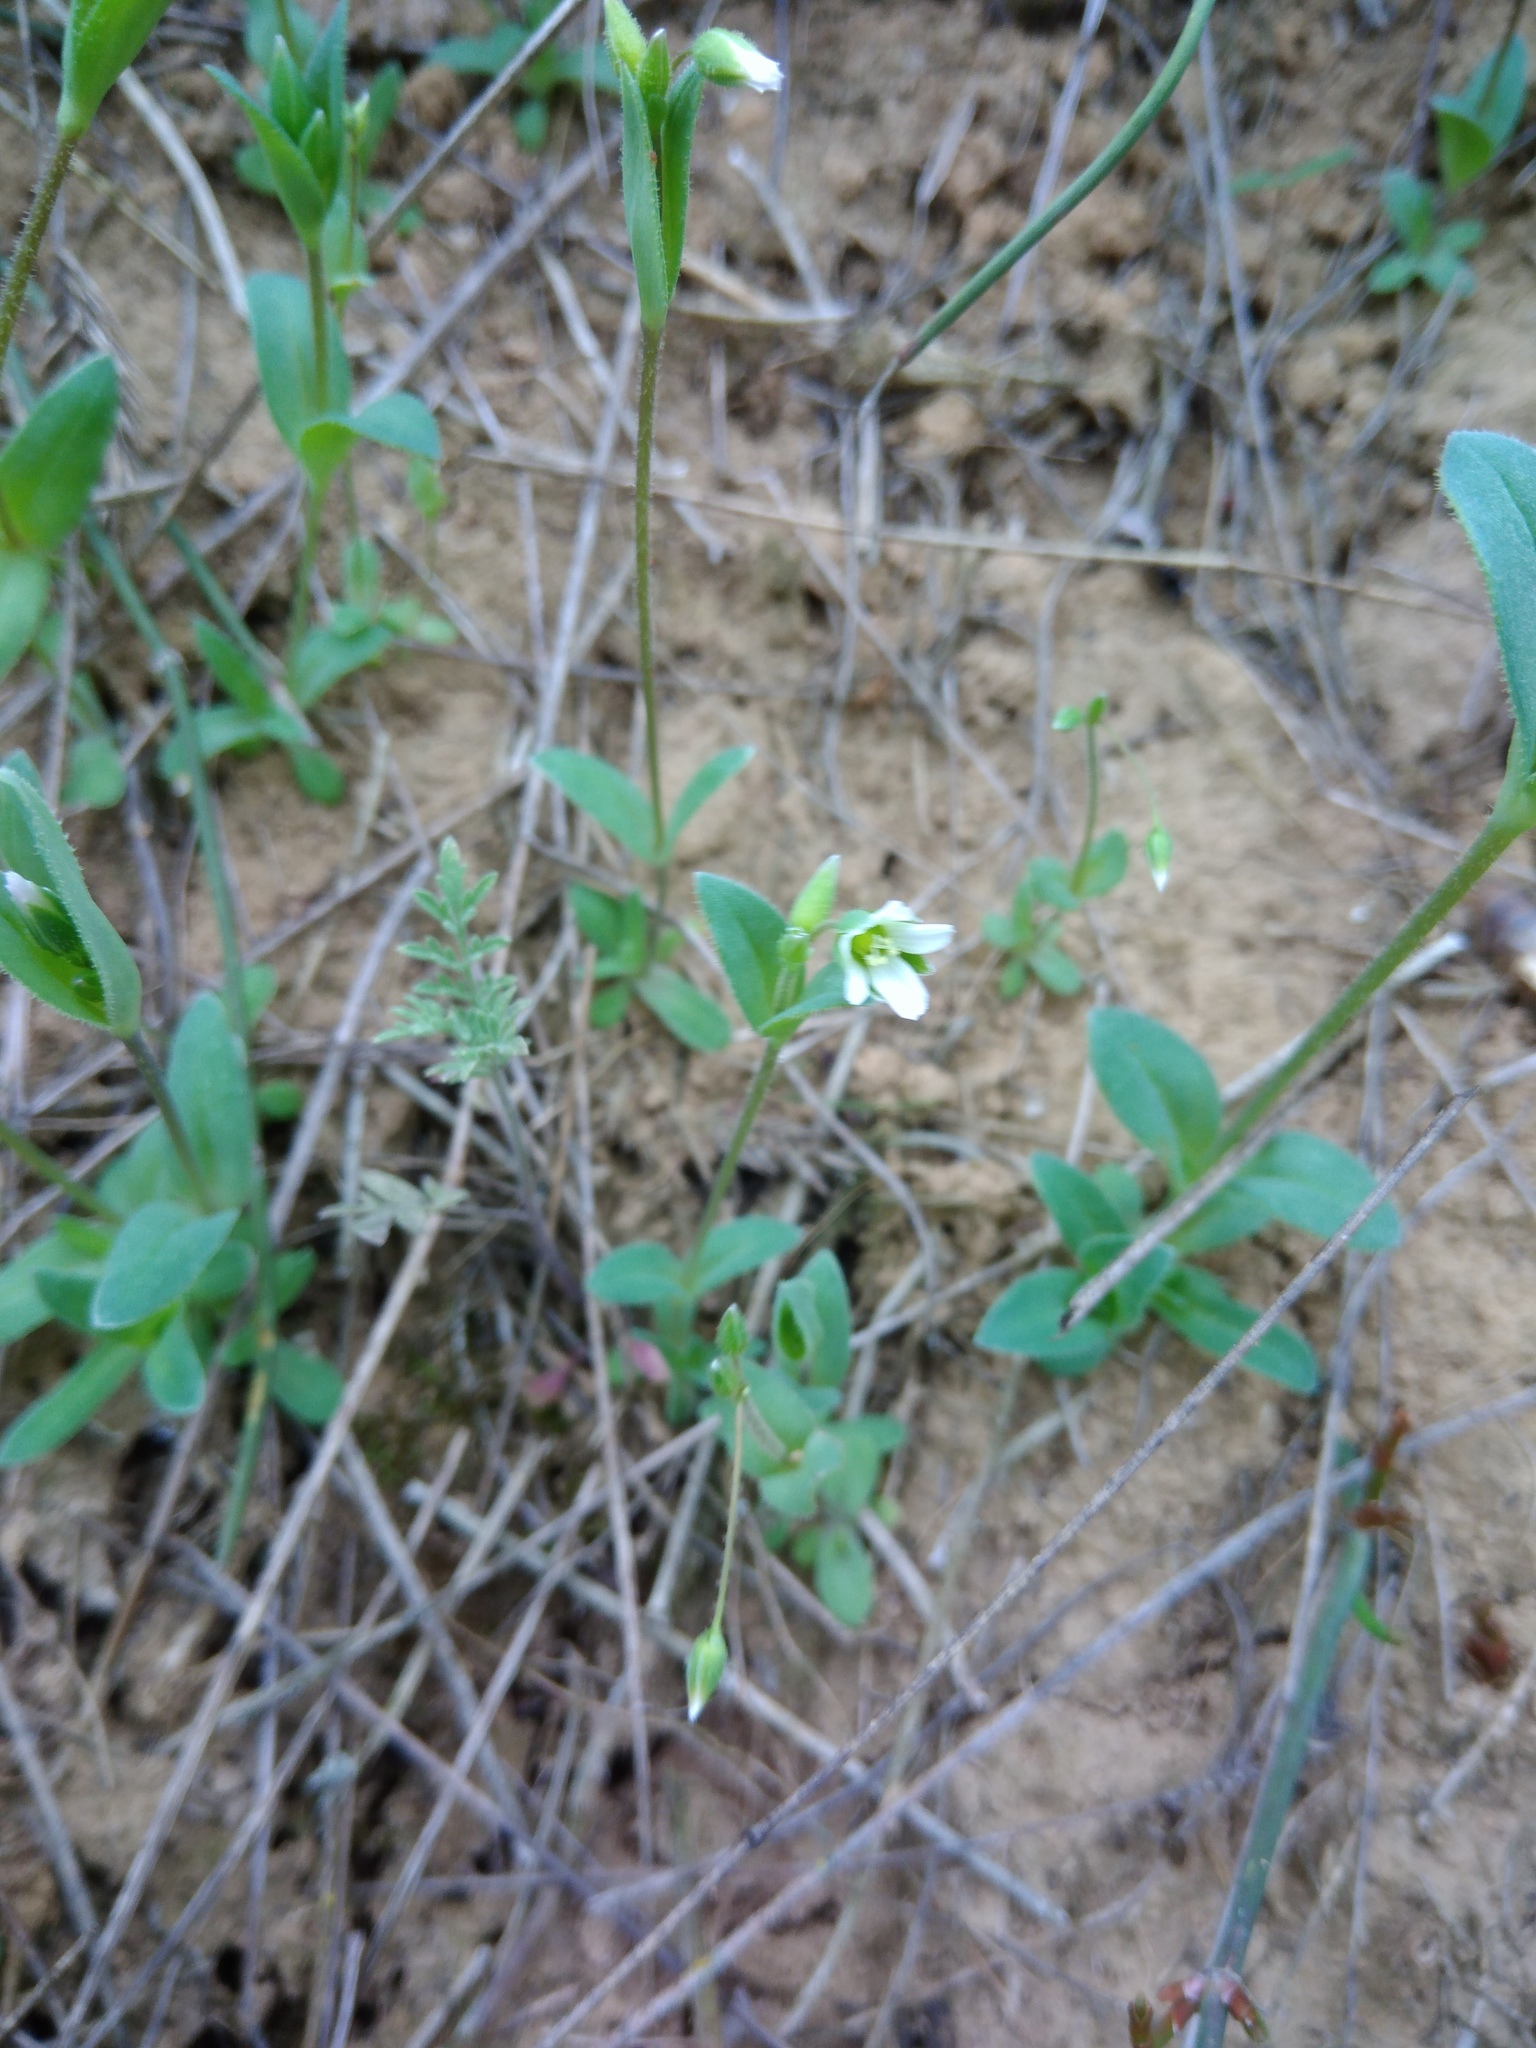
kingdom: Plantae
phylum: Tracheophyta
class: Magnoliopsida
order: Caryophyllales
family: Caryophyllaceae
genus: Holosteum
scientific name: Holosteum umbellatum
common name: Jagged chickweed
